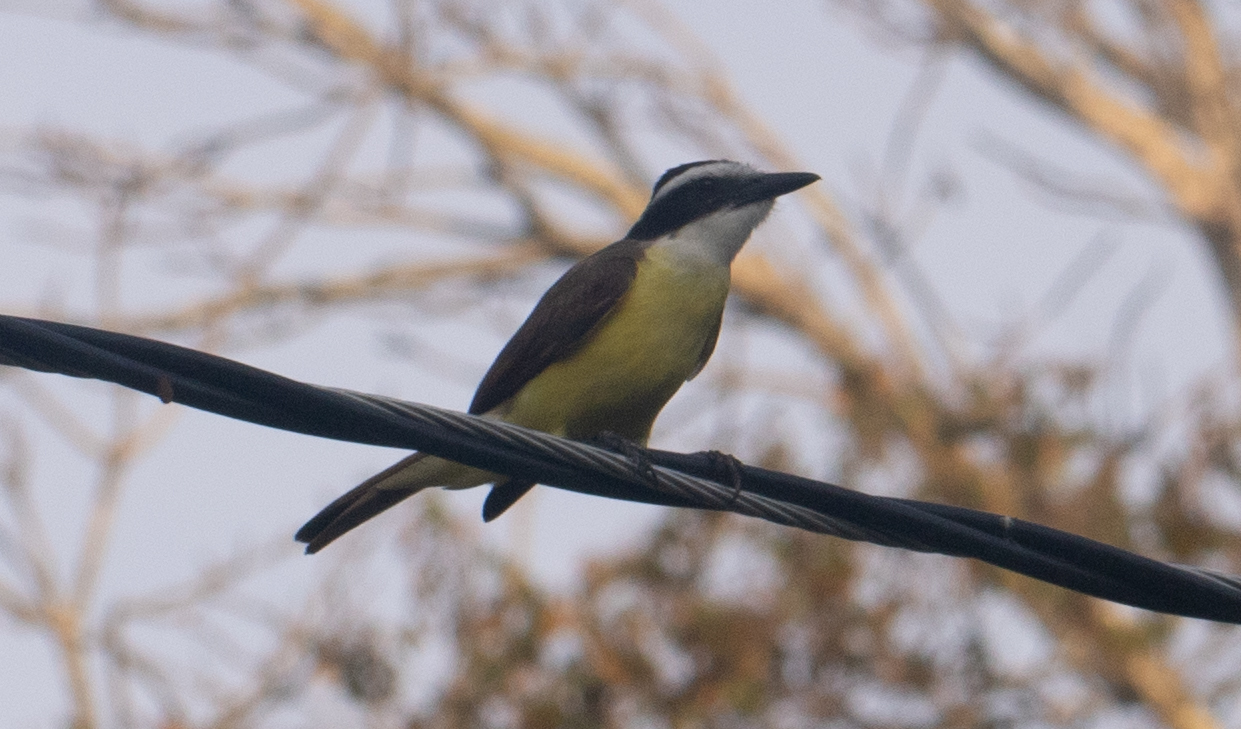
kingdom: Animalia
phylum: Chordata
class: Aves
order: Passeriformes
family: Tyrannidae
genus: Pitangus
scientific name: Pitangus sulphuratus
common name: Great kiskadee
